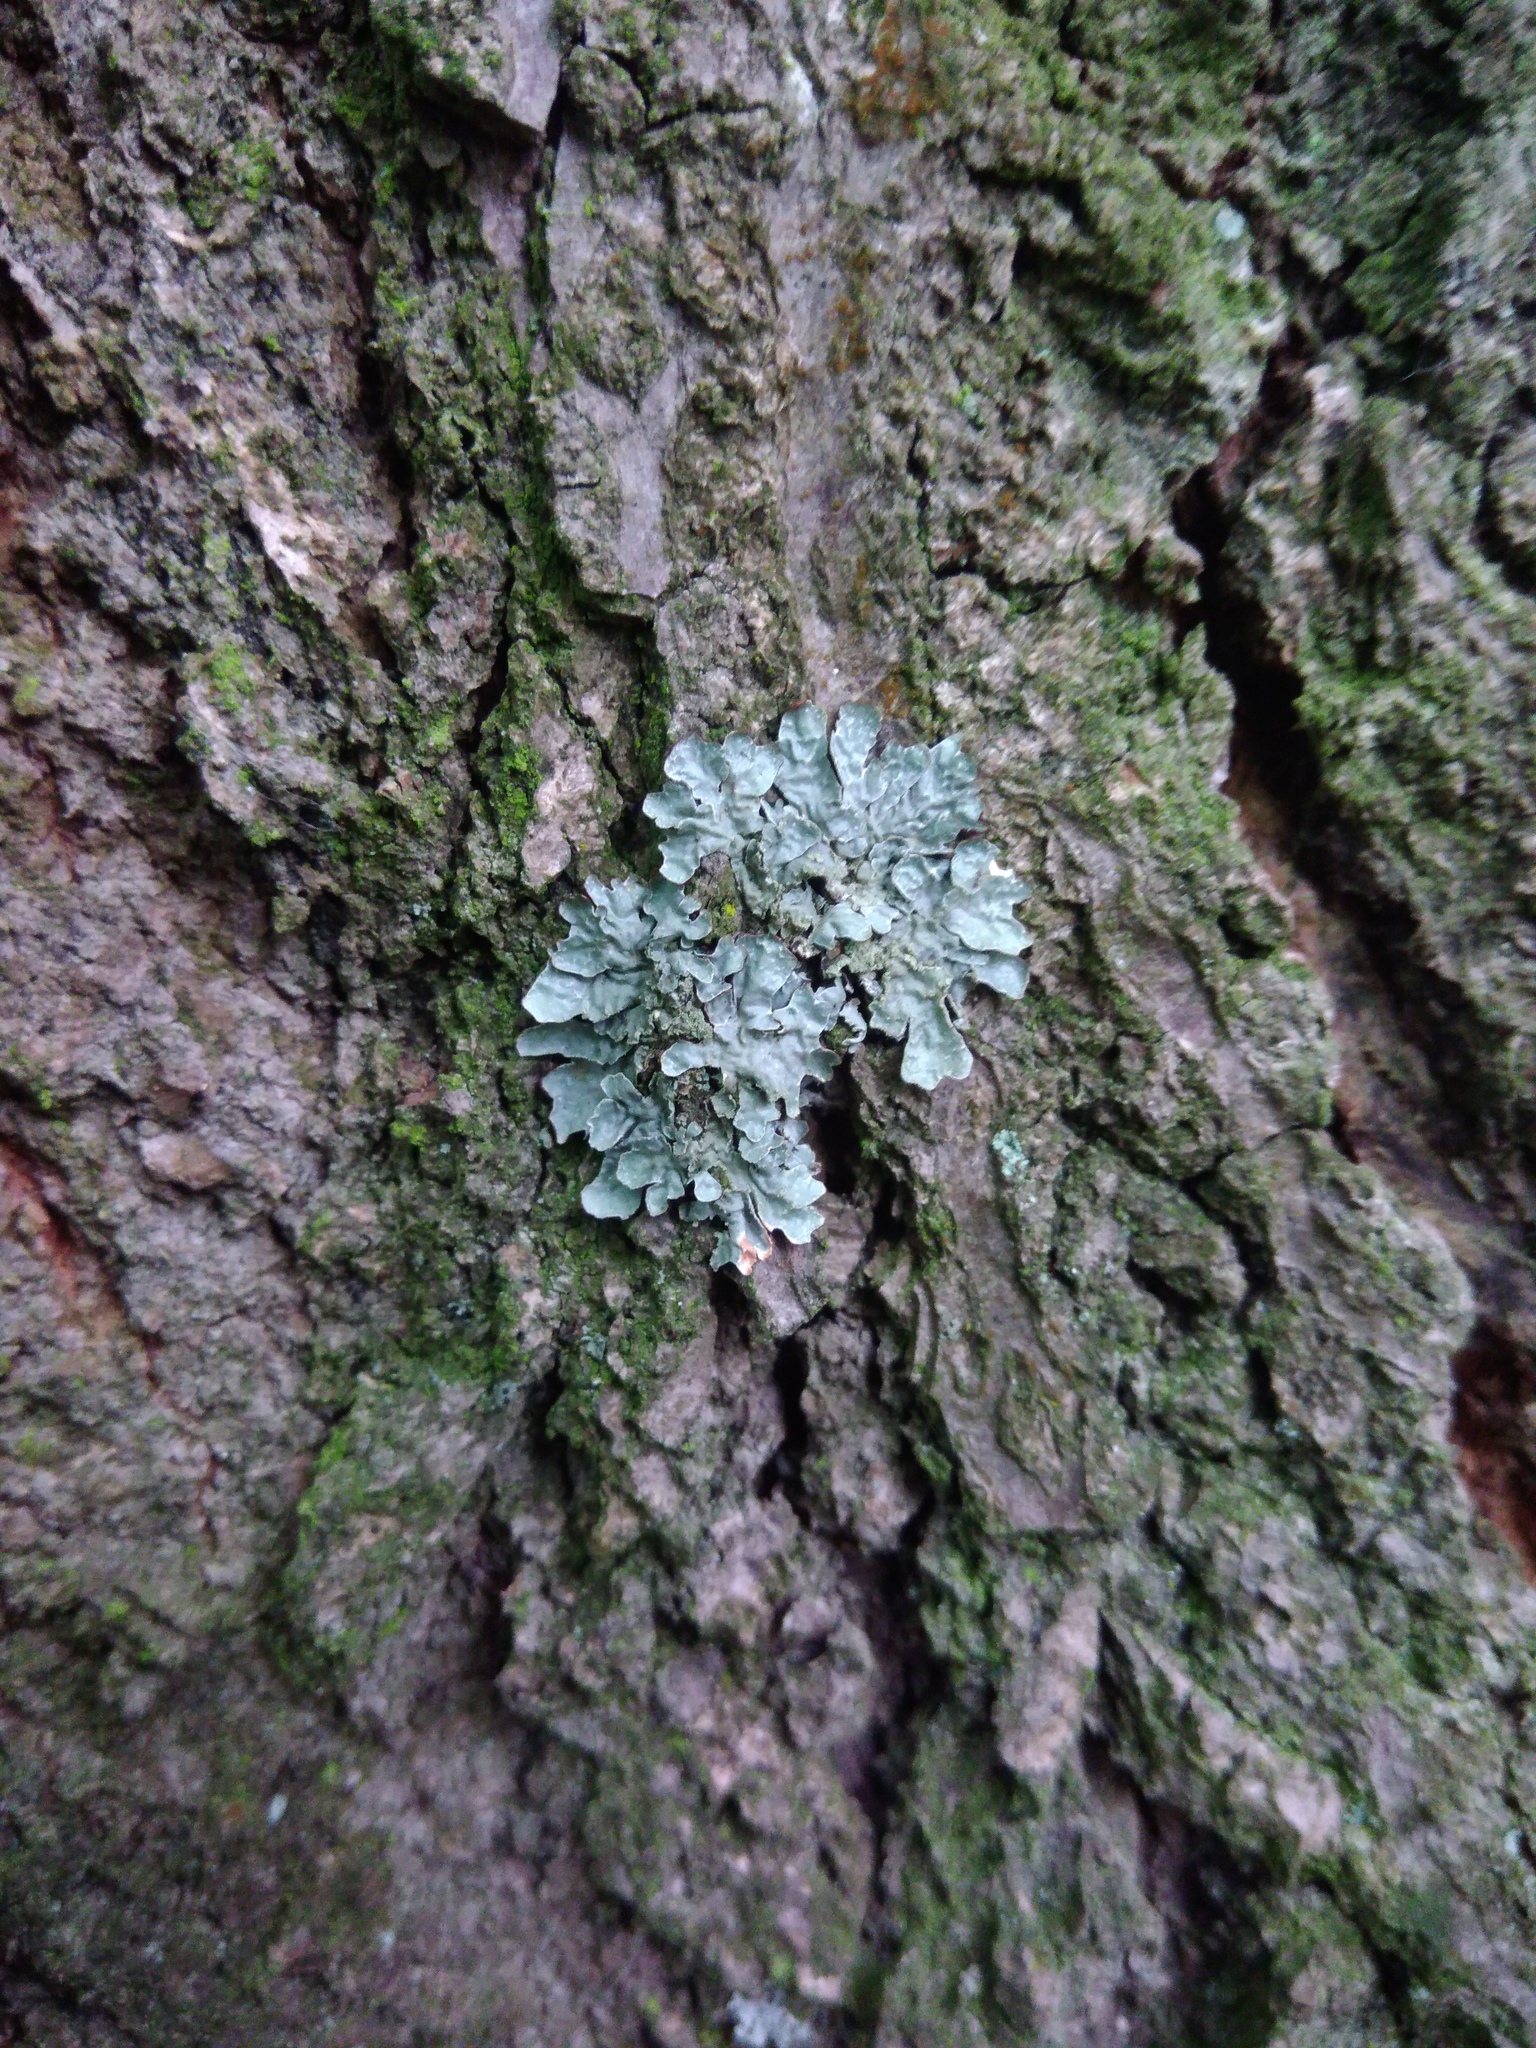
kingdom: Fungi
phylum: Ascomycota
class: Lecanoromycetes
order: Lecanorales
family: Parmeliaceae
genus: Parmelia
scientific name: Parmelia sulcata
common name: Netted shield lichen
